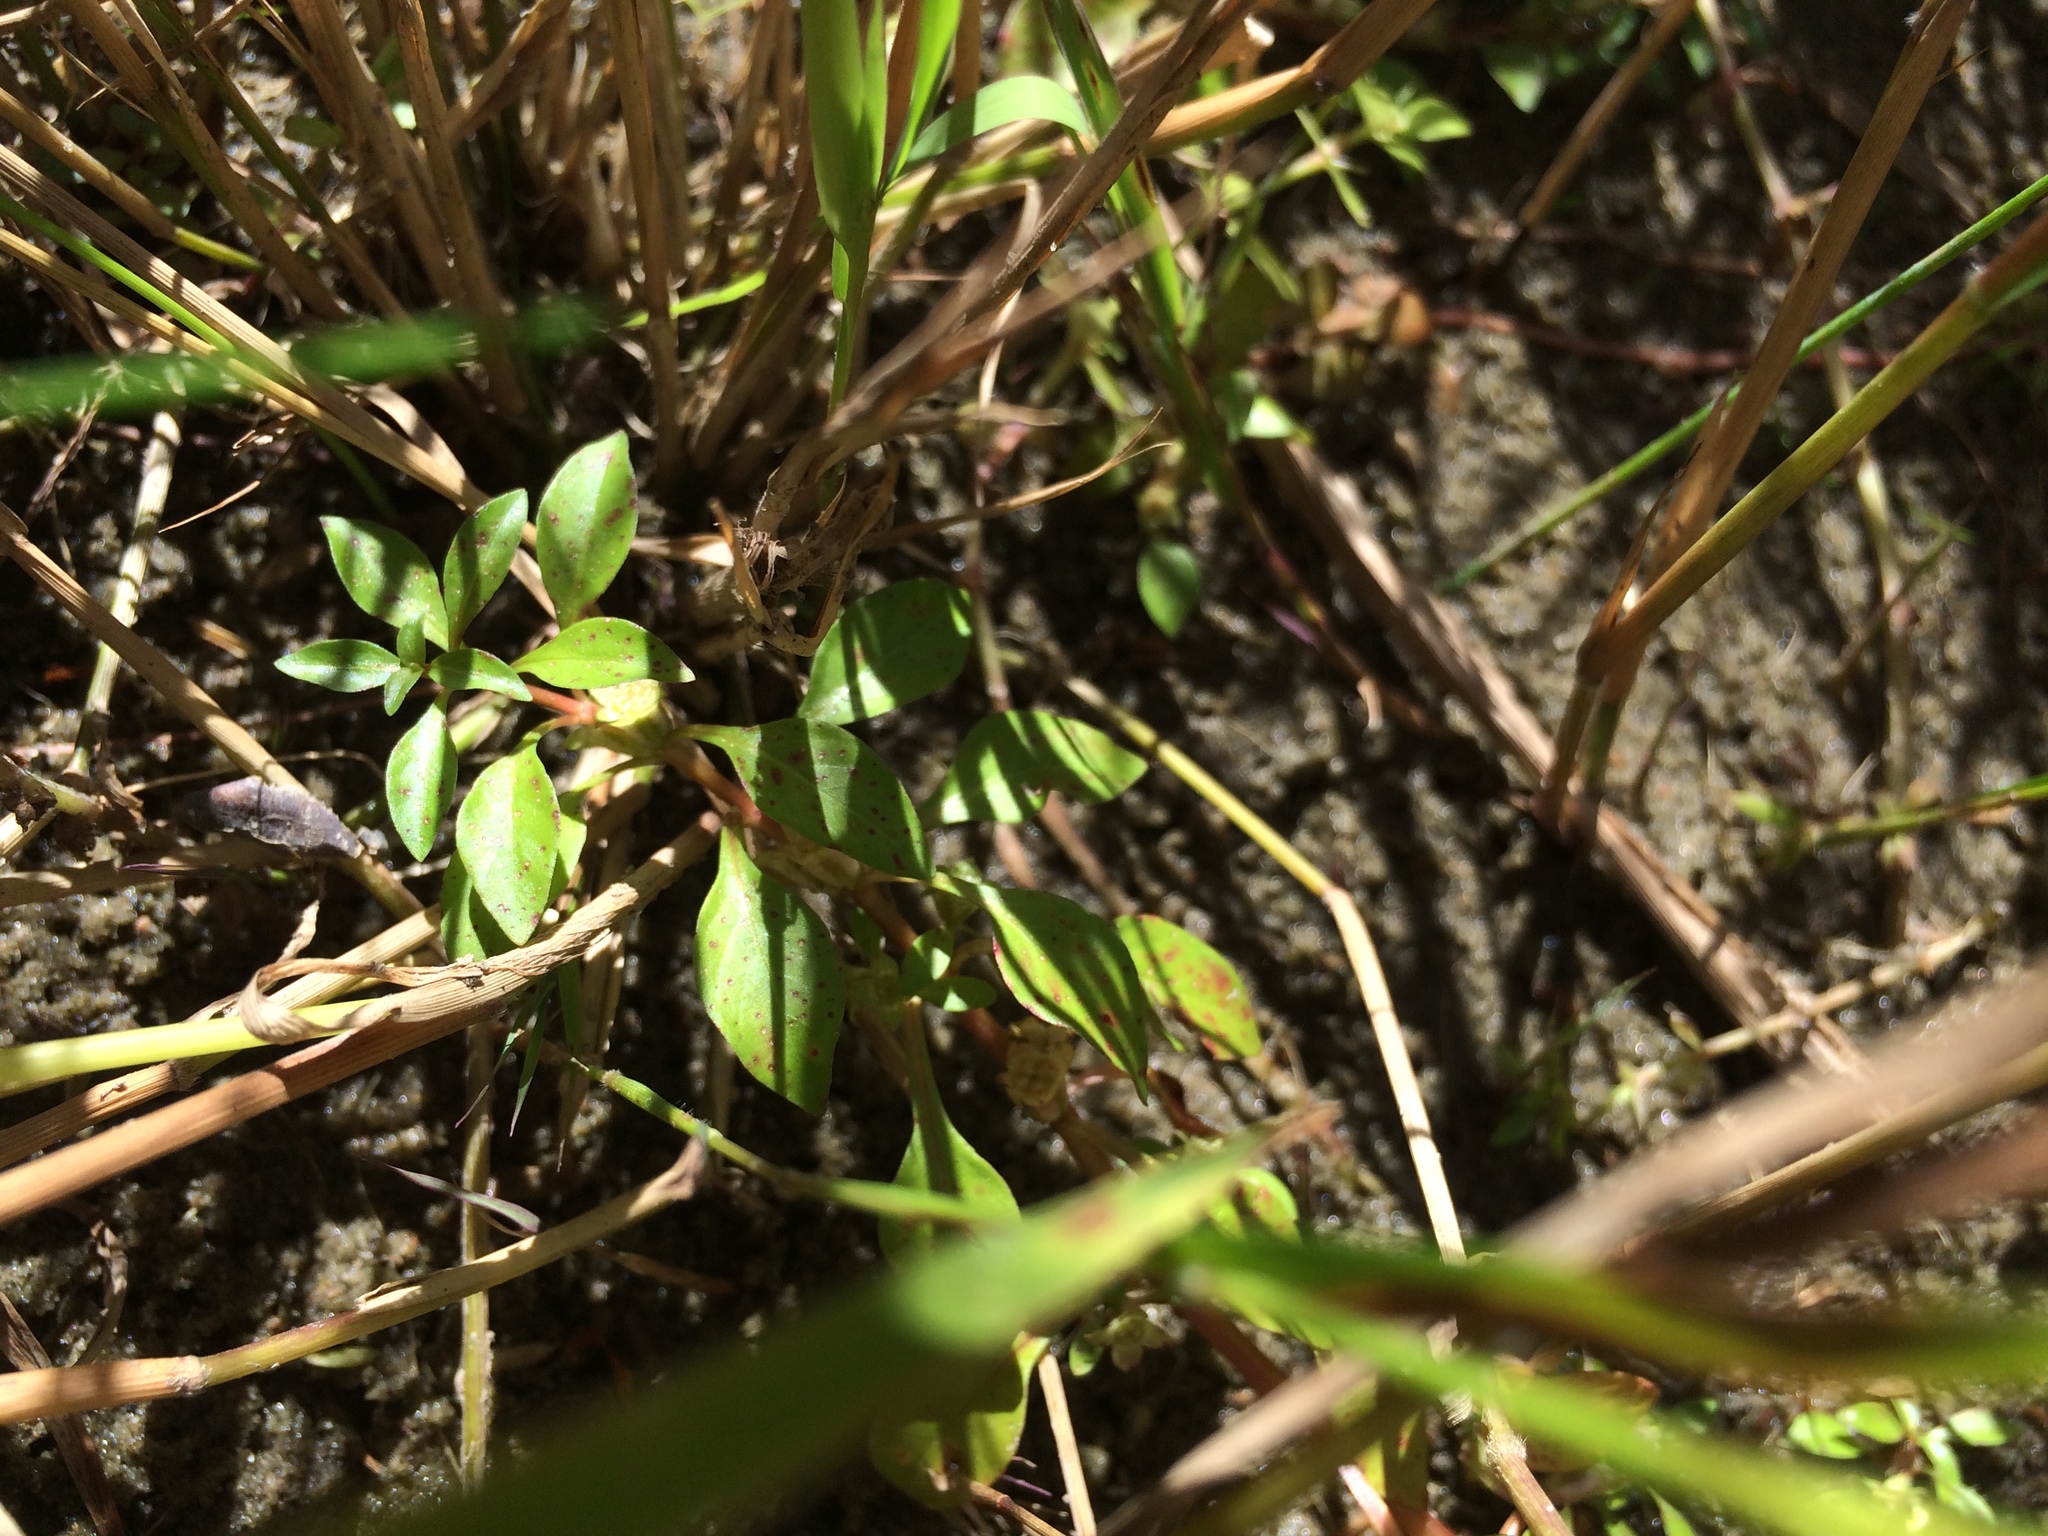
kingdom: Plantae
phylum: Tracheophyta
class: Magnoliopsida
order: Myrtales
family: Onagraceae
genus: Ludwigia
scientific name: Ludwigia palustris
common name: Hampshire-purslane
